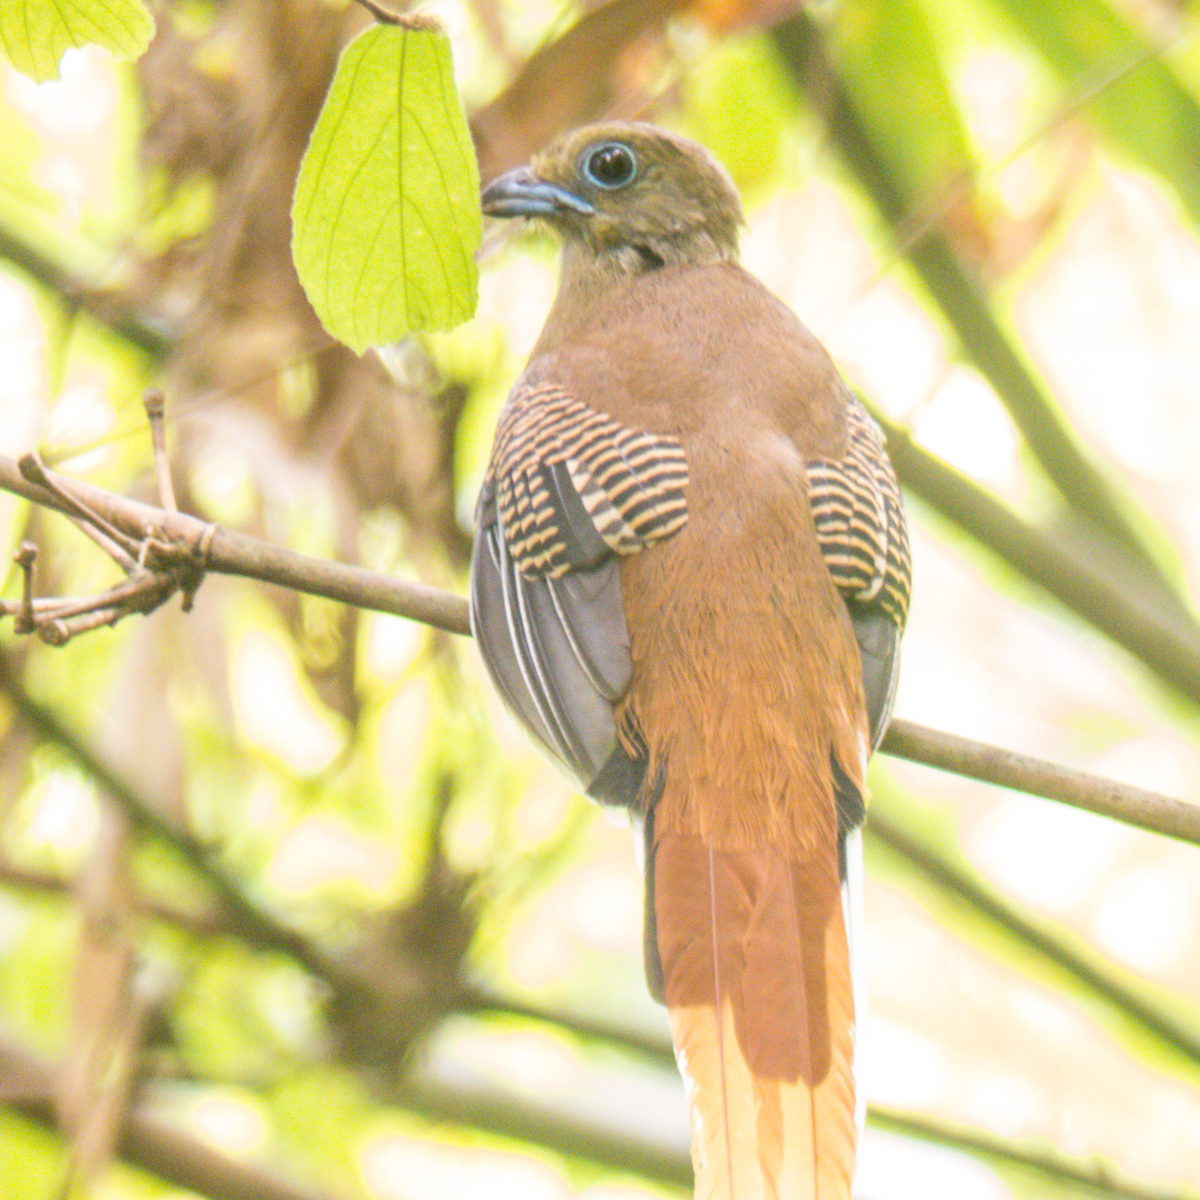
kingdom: Animalia
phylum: Chordata
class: Aves
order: Trogoniformes
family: Trogonidae
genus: Harpactes
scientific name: Harpactes oreskios
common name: Orange-breasted trogon
